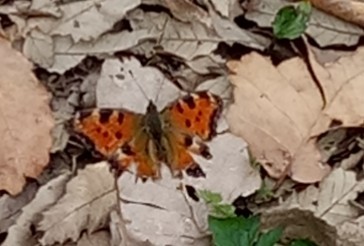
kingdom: Animalia
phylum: Arthropoda
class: Insecta
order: Lepidoptera
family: Nymphalidae
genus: Nymphalis
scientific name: Nymphalis polychloros
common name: Large tortoiseshell
